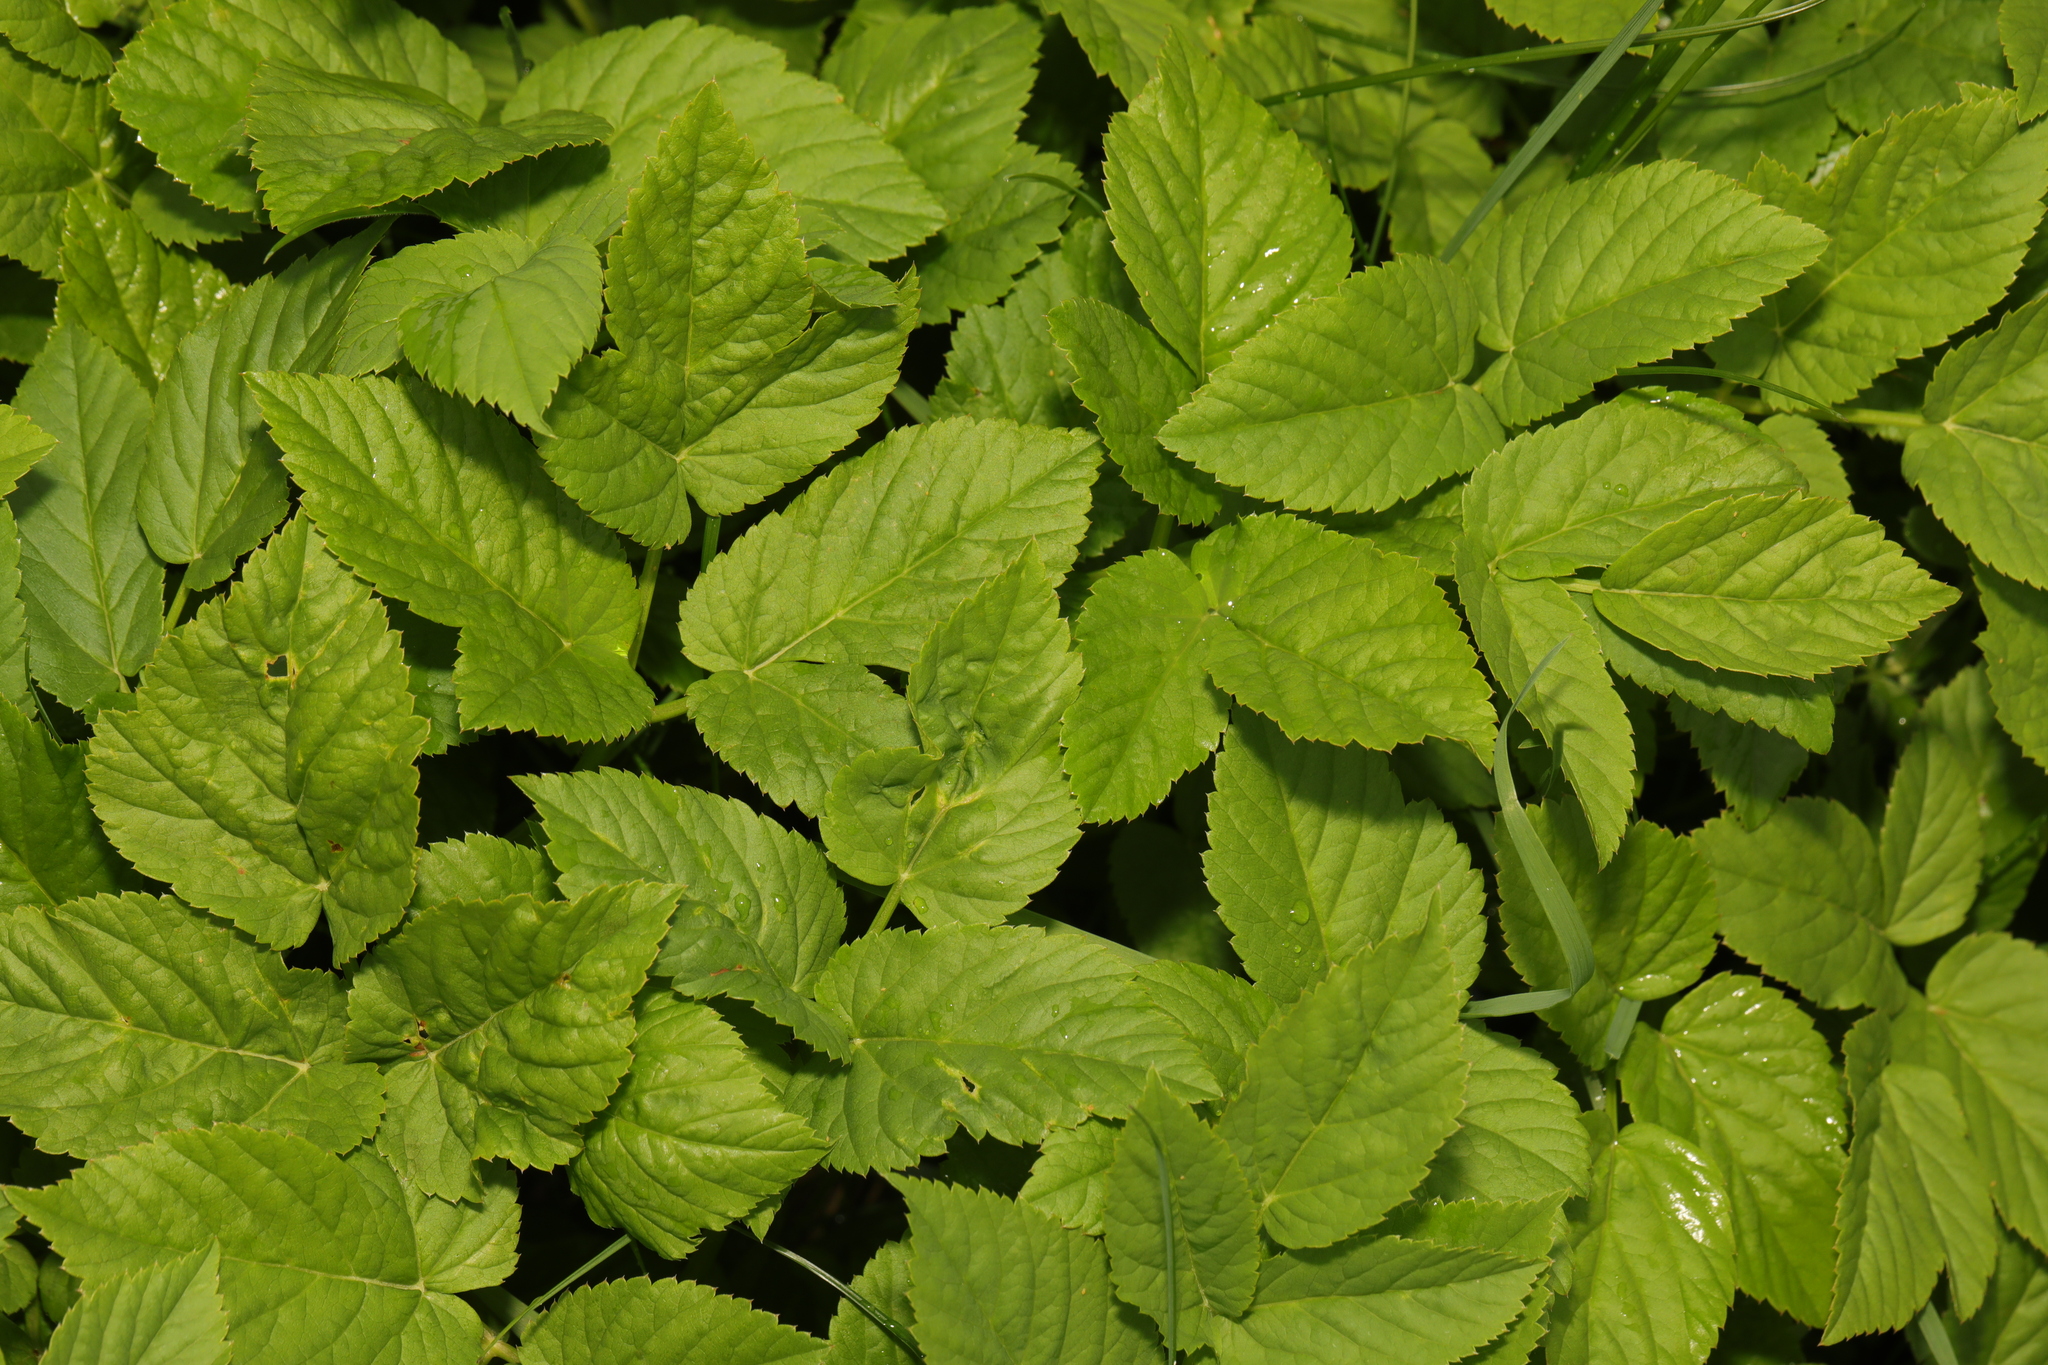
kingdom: Plantae
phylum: Tracheophyta
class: Magnoliopsida
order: Apiales
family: Apiaceae
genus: Aegopodium
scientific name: Aegopodium podagraria
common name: Ground-elder
